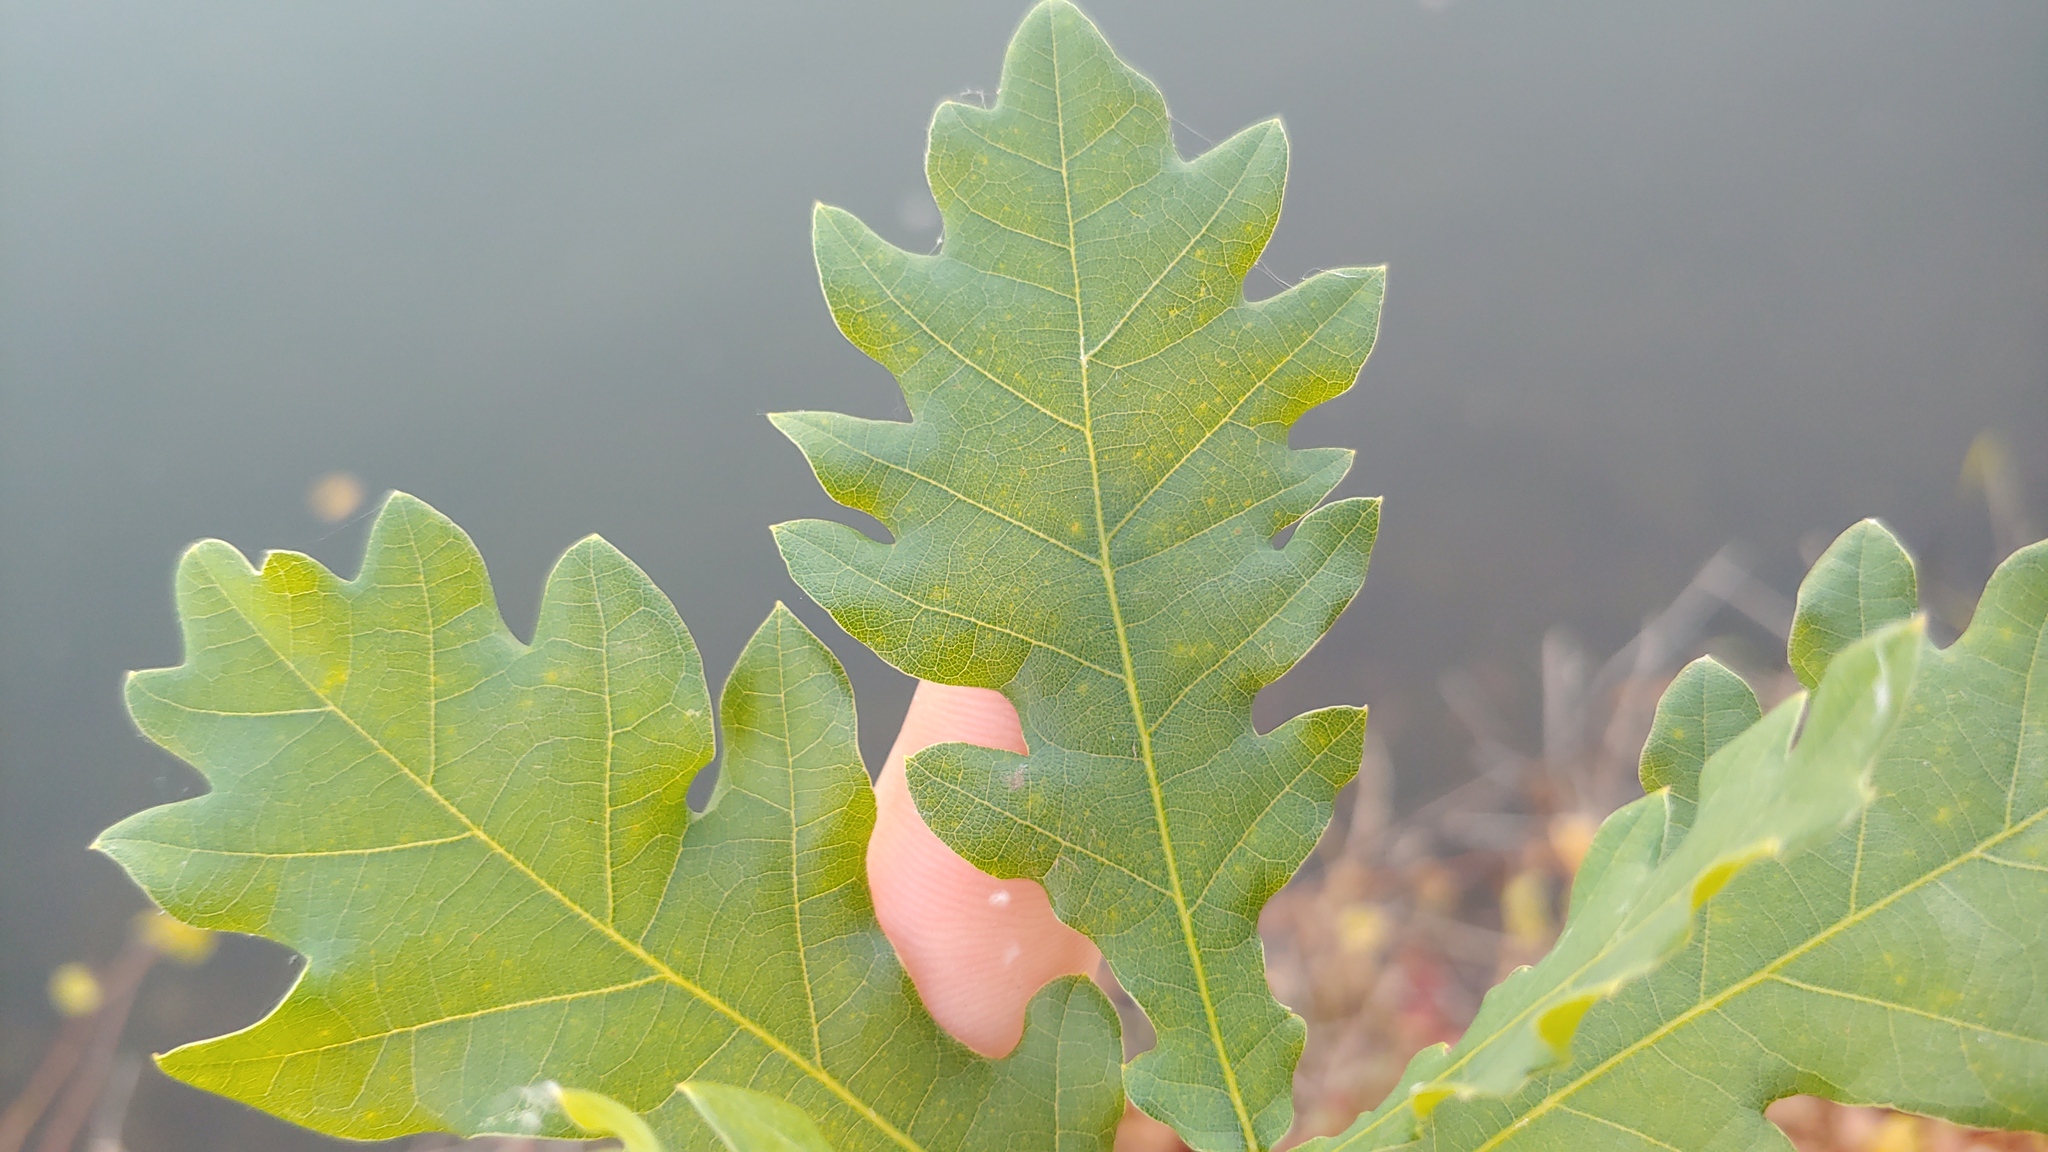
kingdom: Plantae
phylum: Tracheophyta
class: Magnoliopsida
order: Fagales
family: Fagaceae
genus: Quercus
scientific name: Quercus robur
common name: Pedunculate oak
